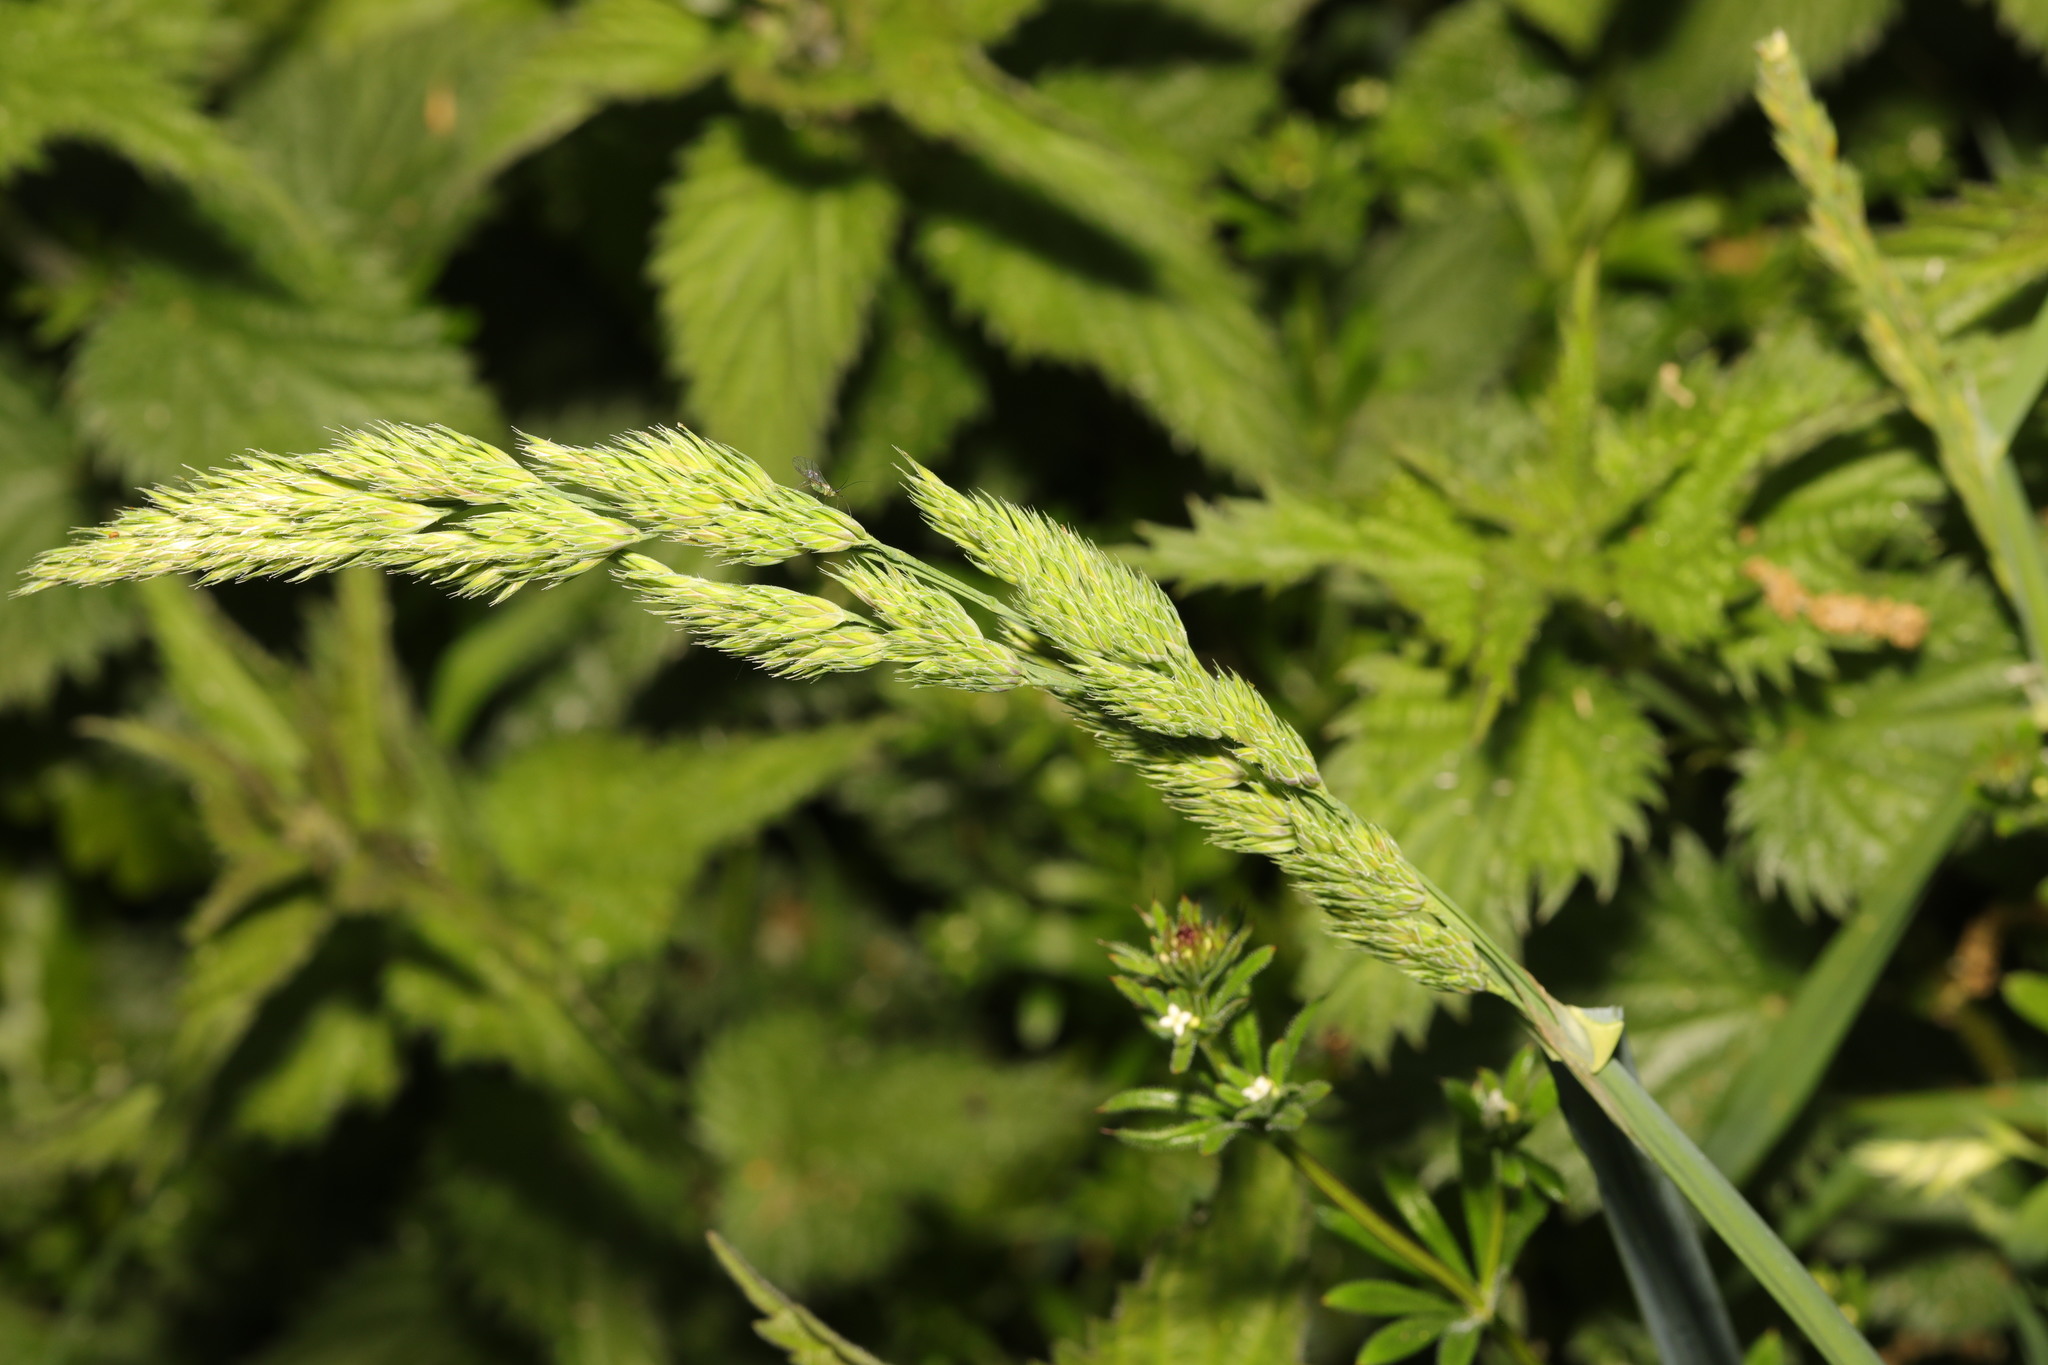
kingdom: Plantae
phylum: Tracheophyta
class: Liliopsida
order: Poales
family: Poaceae
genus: Dactylis
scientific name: Dactylis glomerata
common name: Orchardgrass
